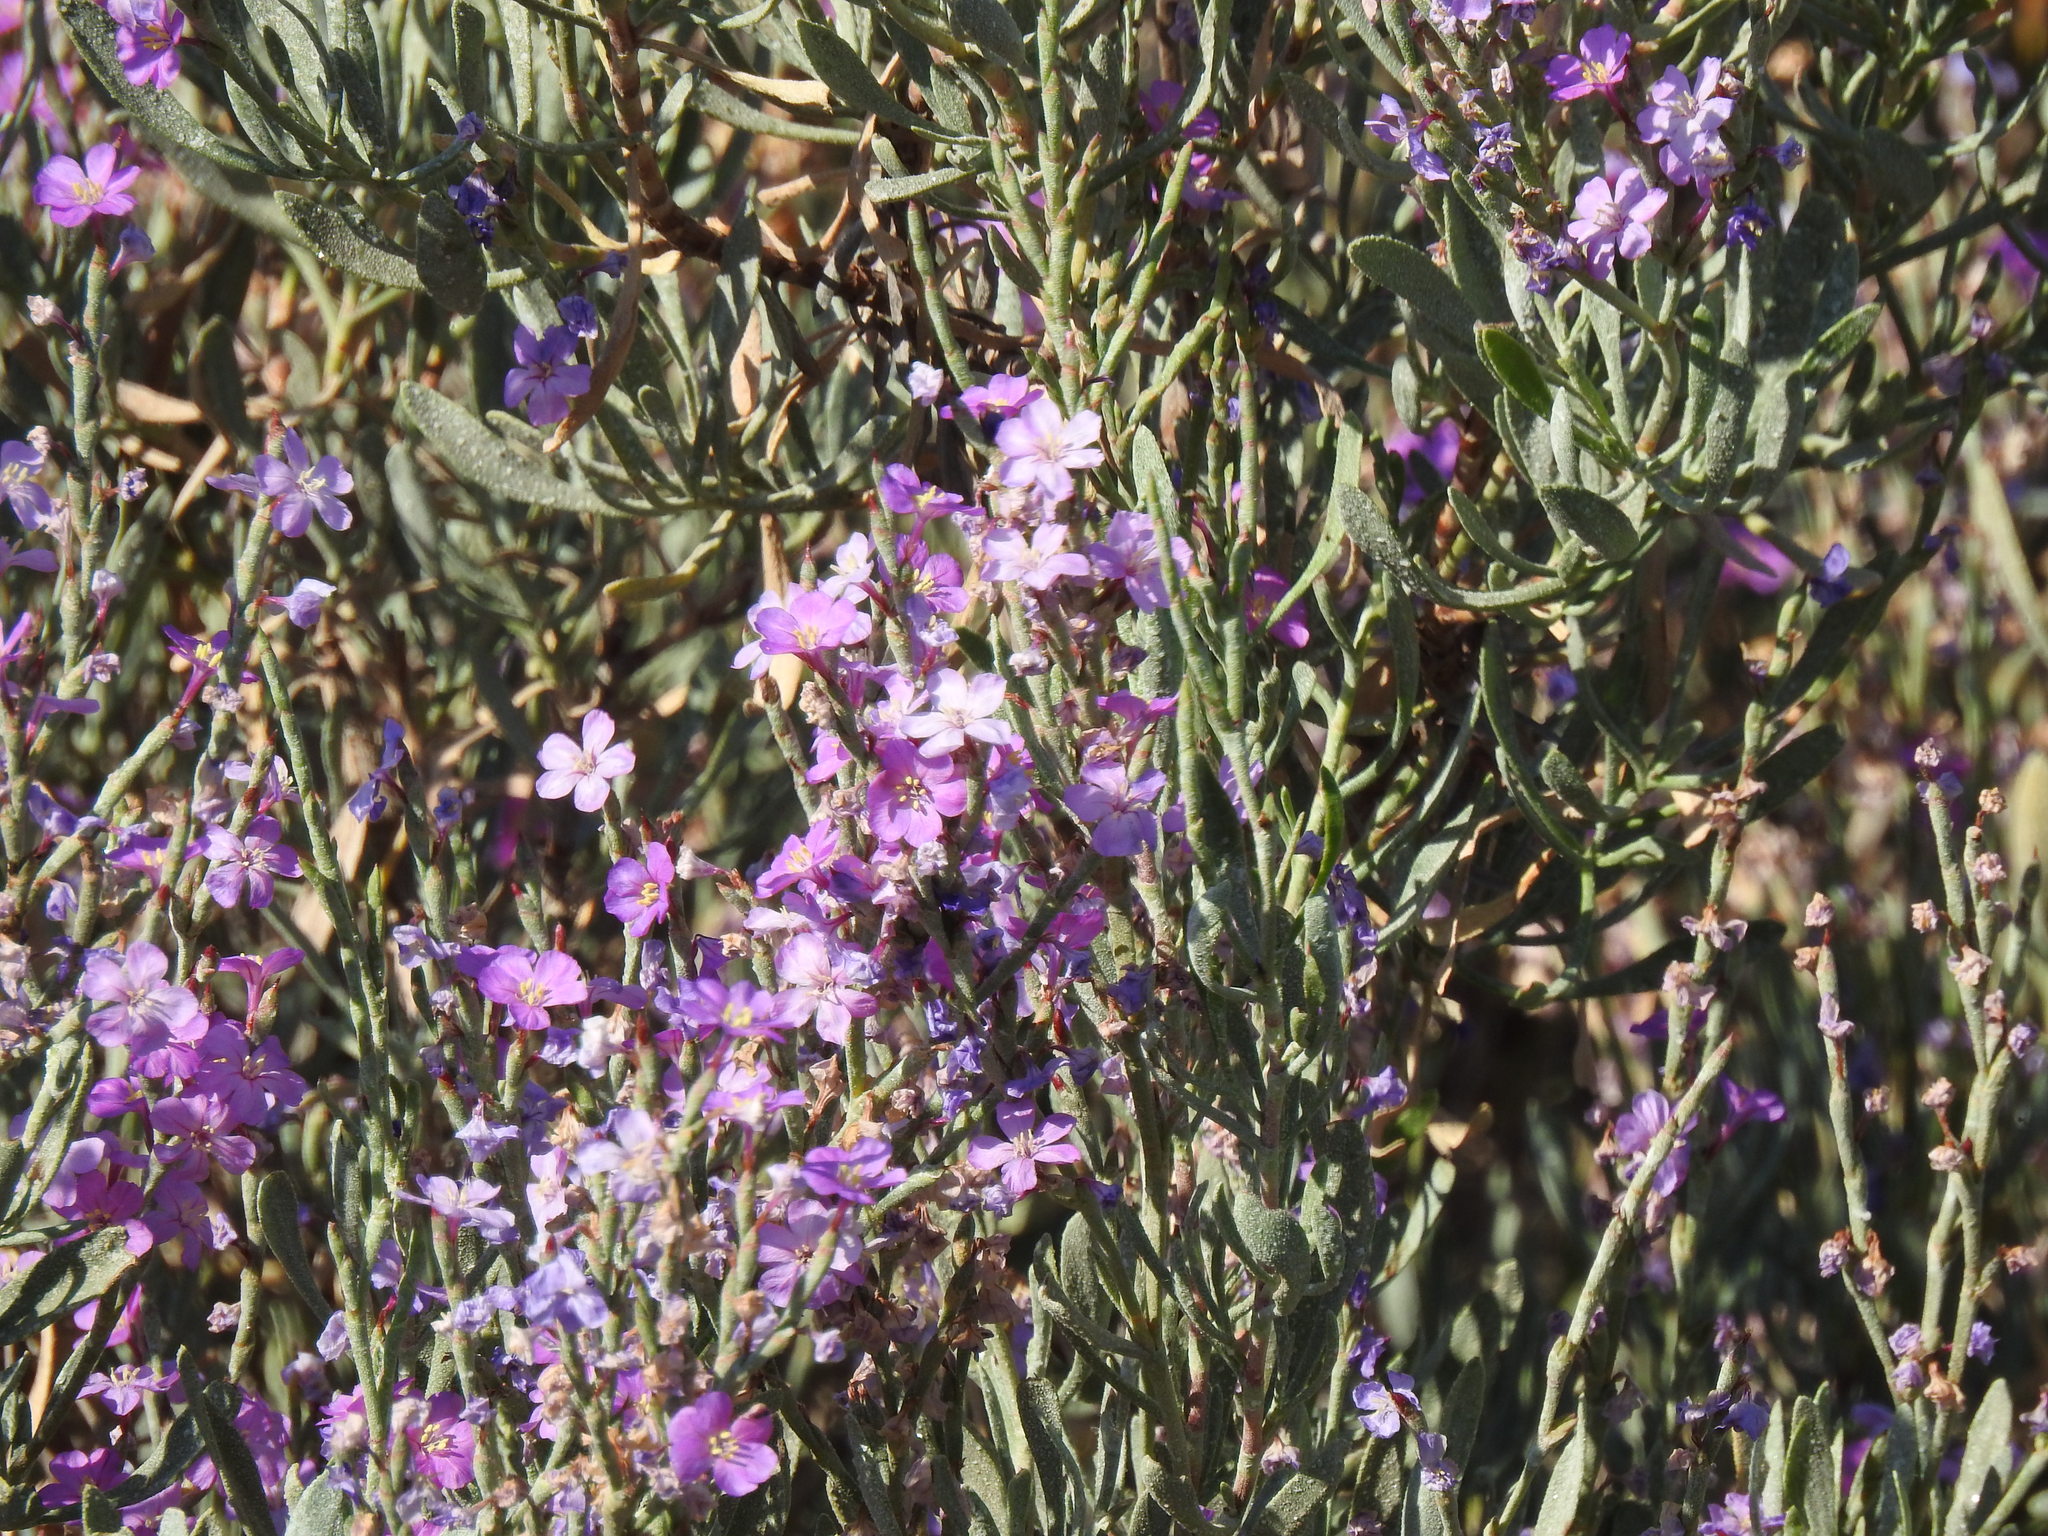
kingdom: Plantae
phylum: Tracheophyta
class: Magnoliopsida
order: Caryophyllales
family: Plumbaginaceae
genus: Limoniastrum
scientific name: Limoniastrum monopetalum
